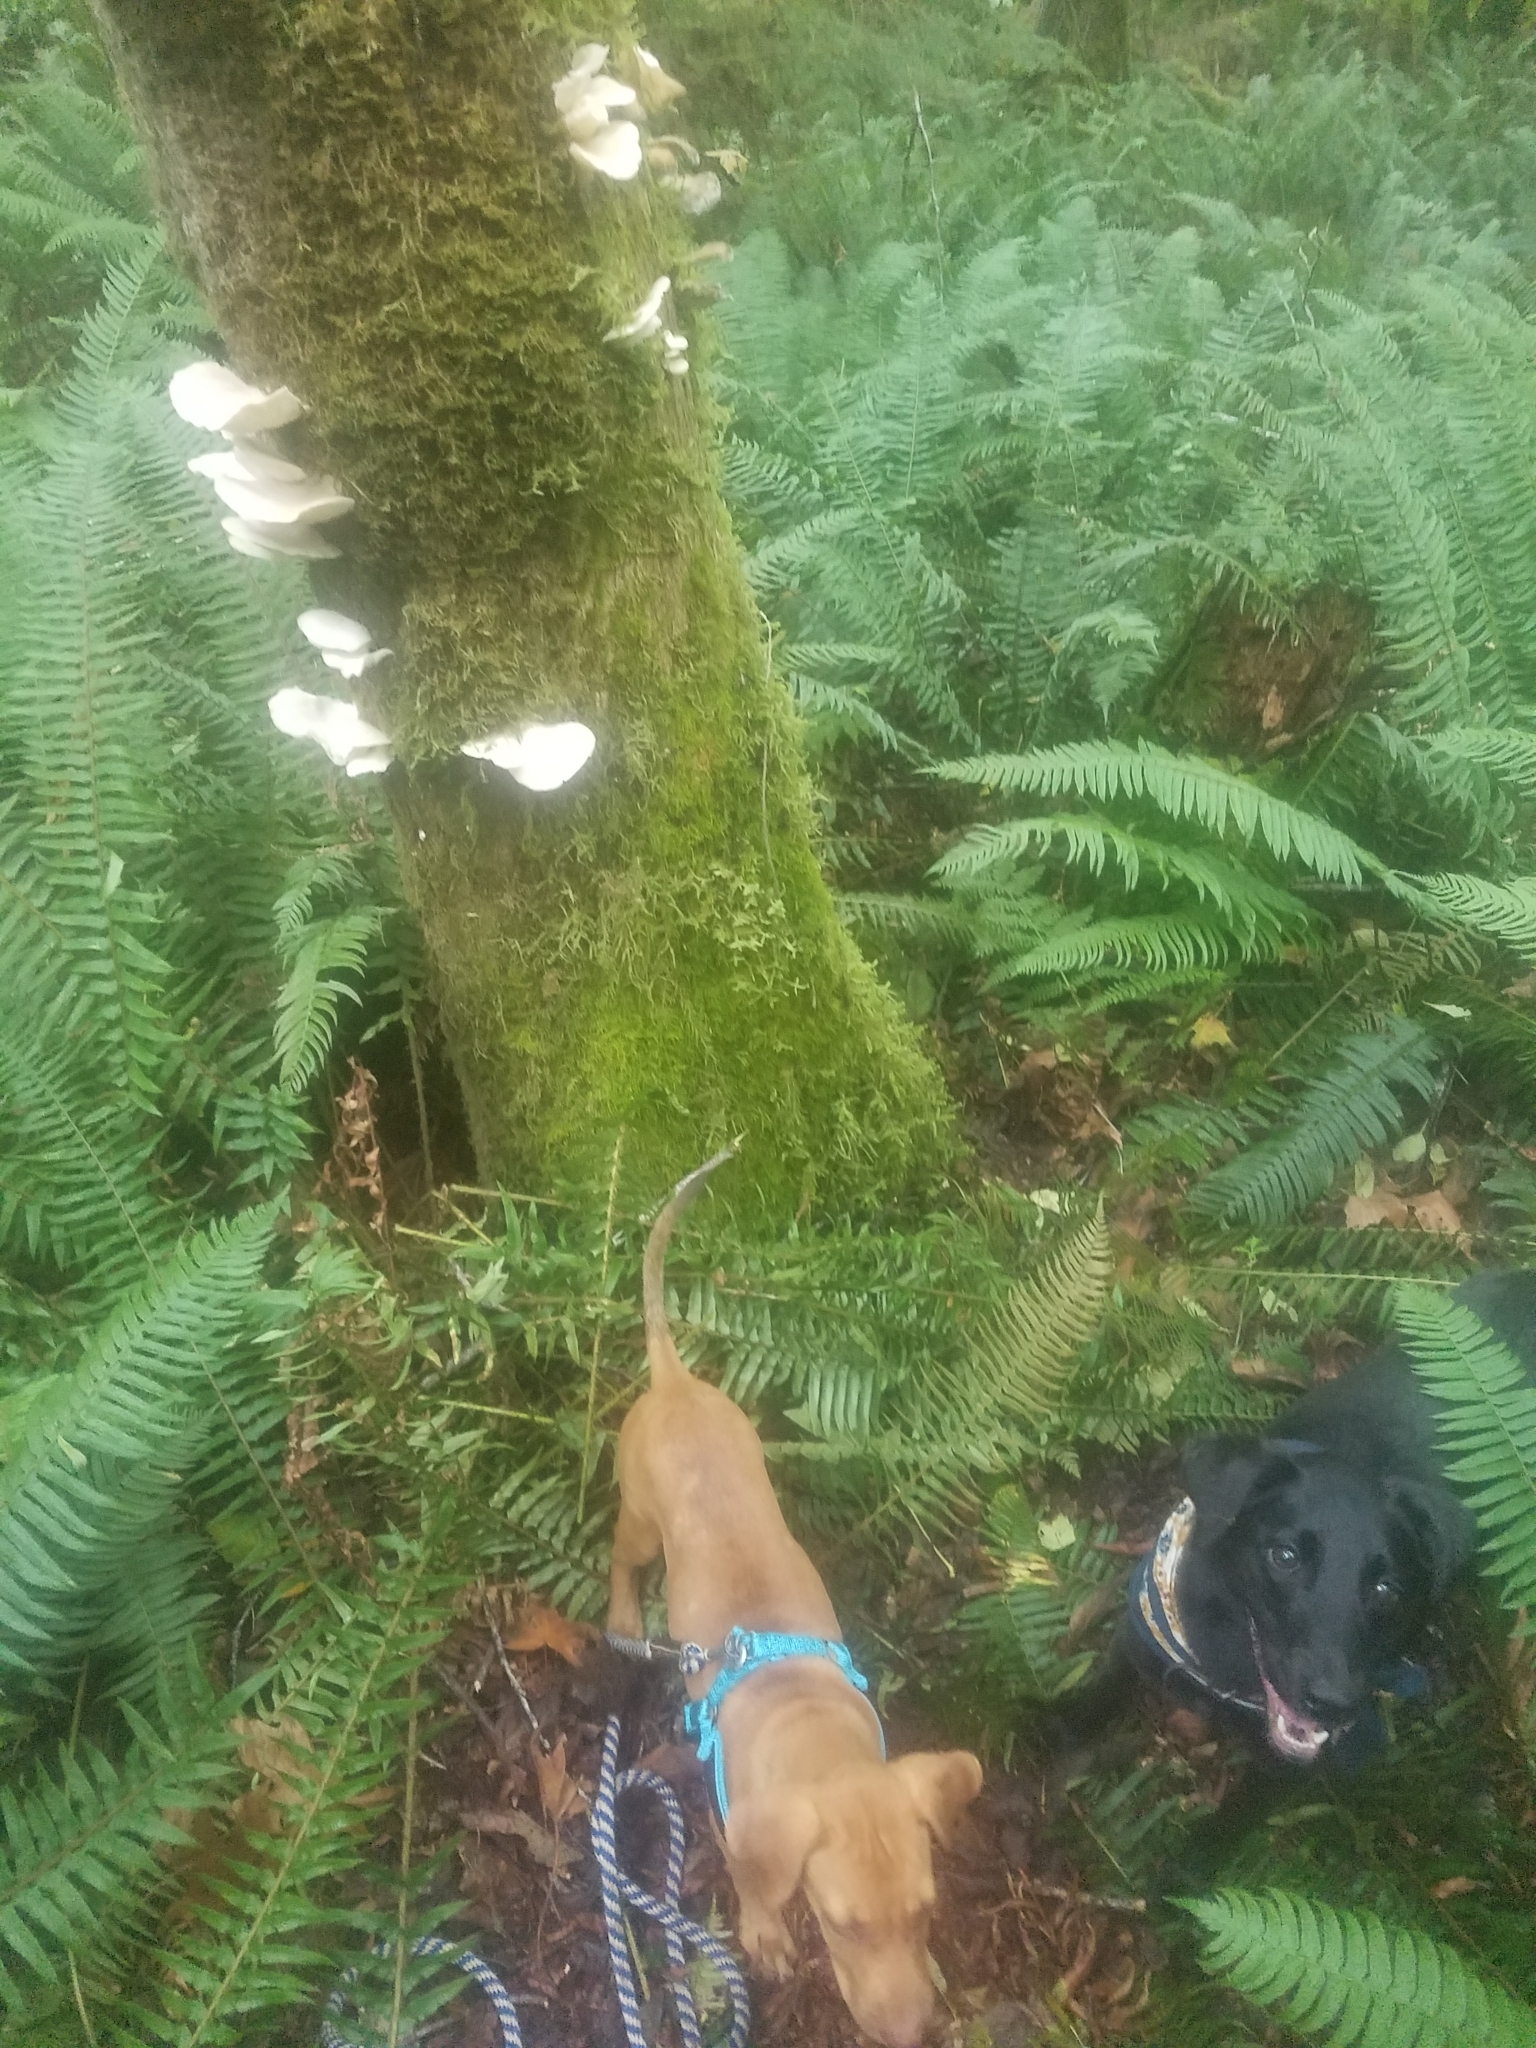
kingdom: Plantae
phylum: Tracheophyta
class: Polypodiopsida
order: Polypodiales
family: Dryopteridaceae
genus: Polystichum
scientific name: Polystichum munitum
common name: Western sword-fern
